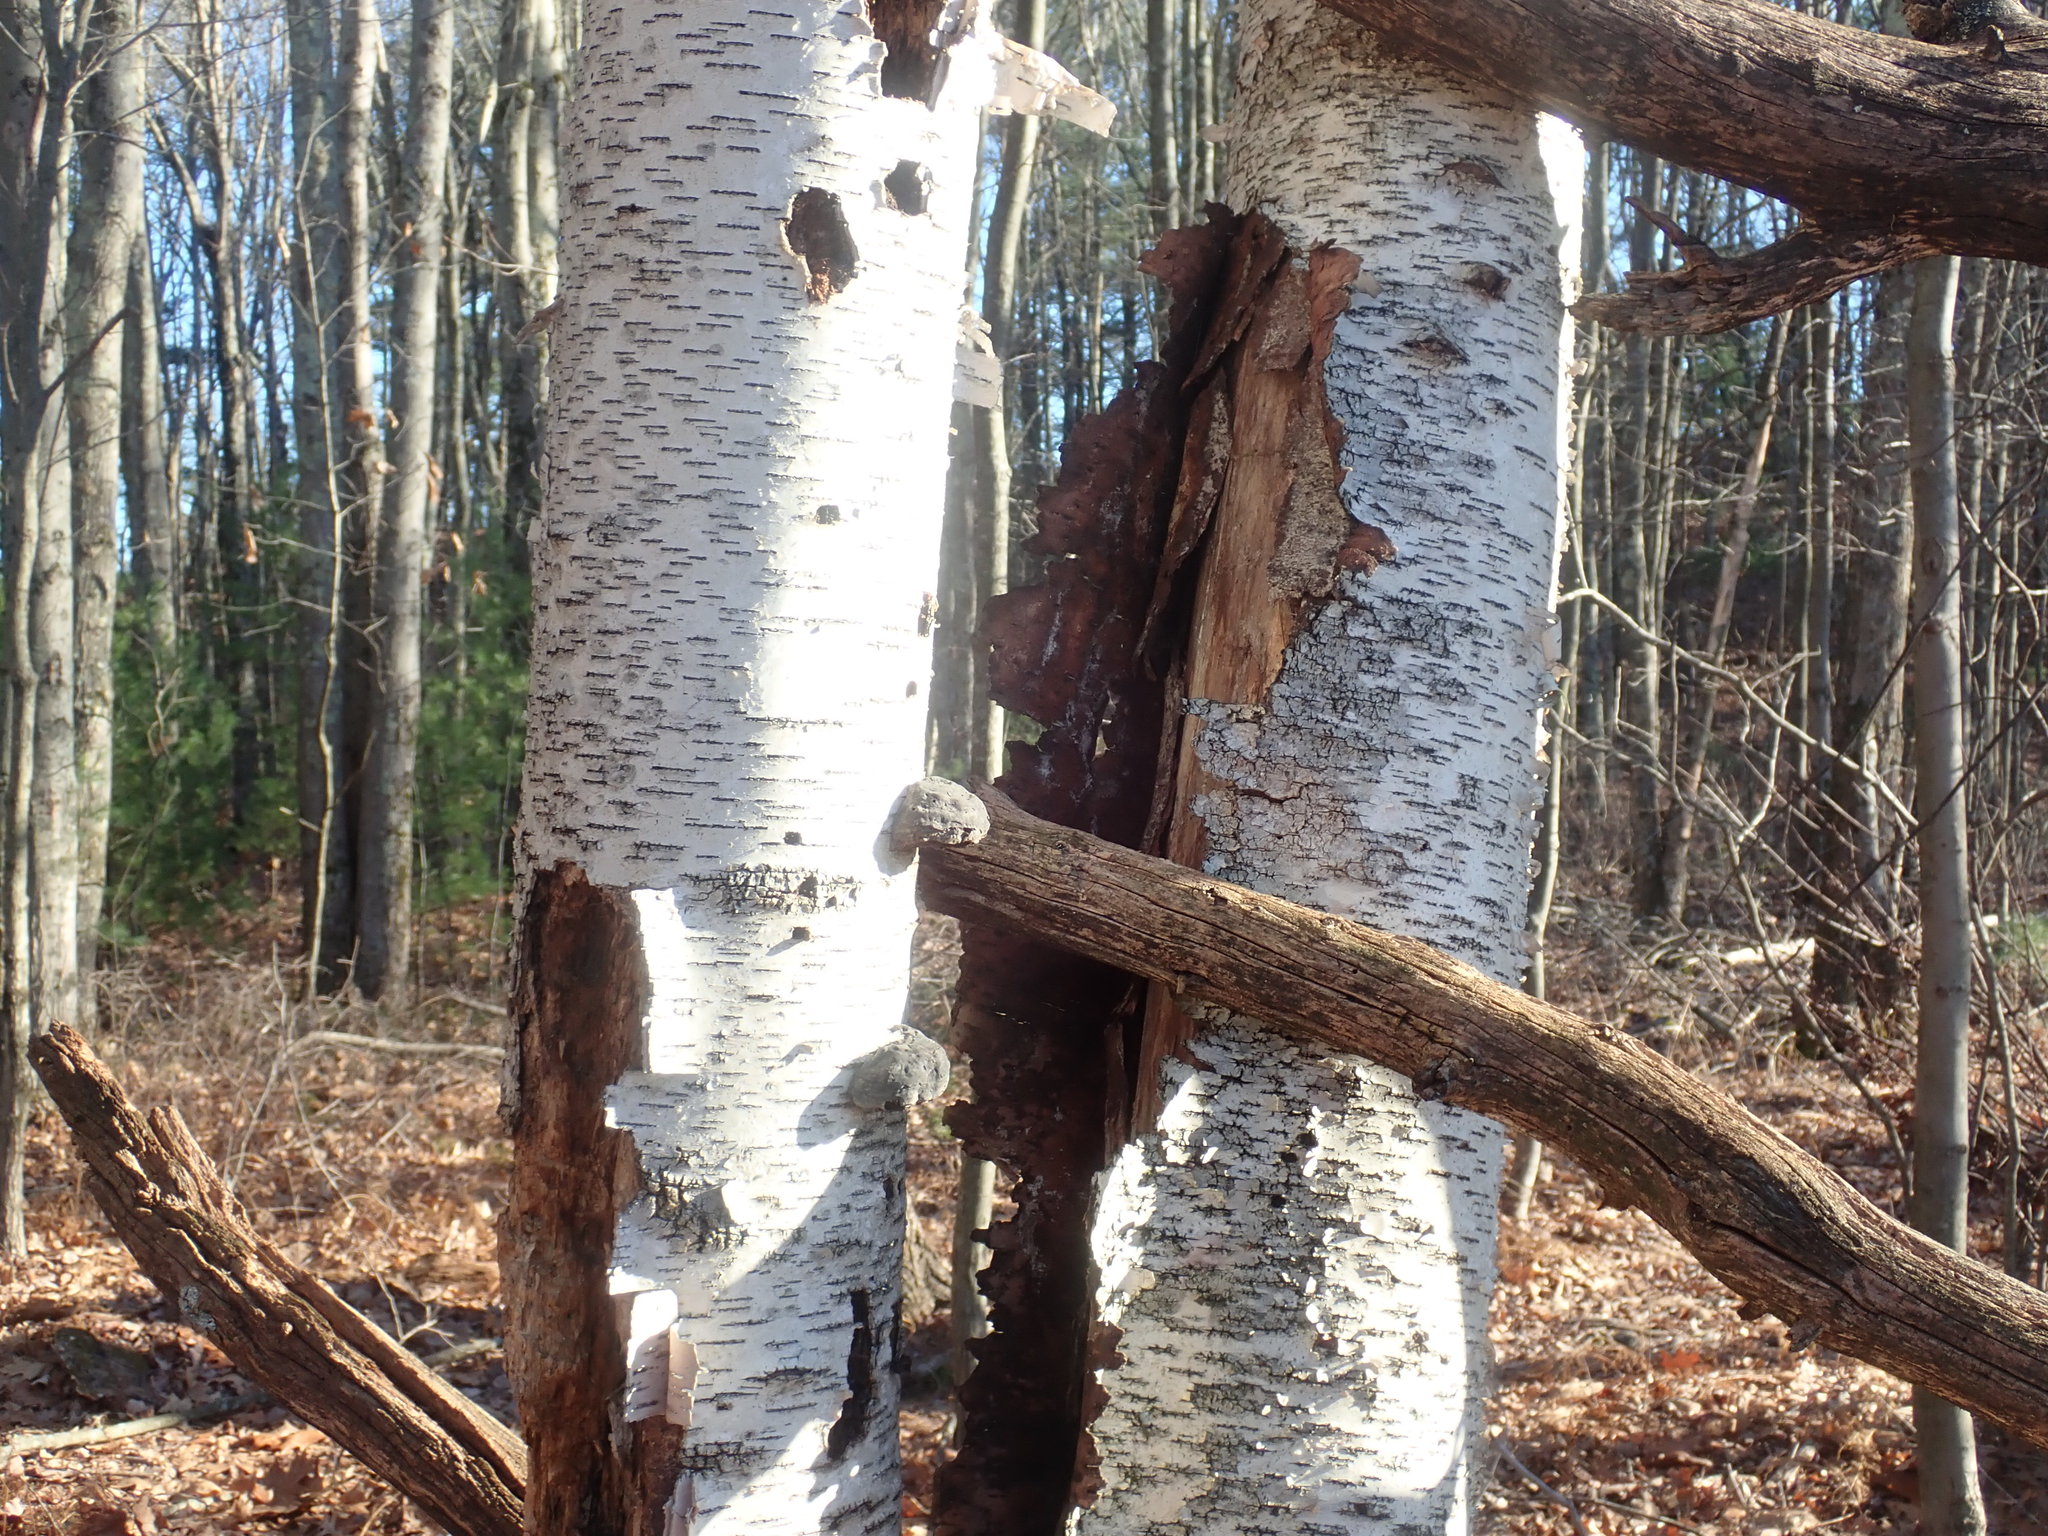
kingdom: Plantae
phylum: Tracheophyta
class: Magnoliopsida
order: Fagales
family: Betulaceae
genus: Betula
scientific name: Betula papyrifera
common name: Paper birch
